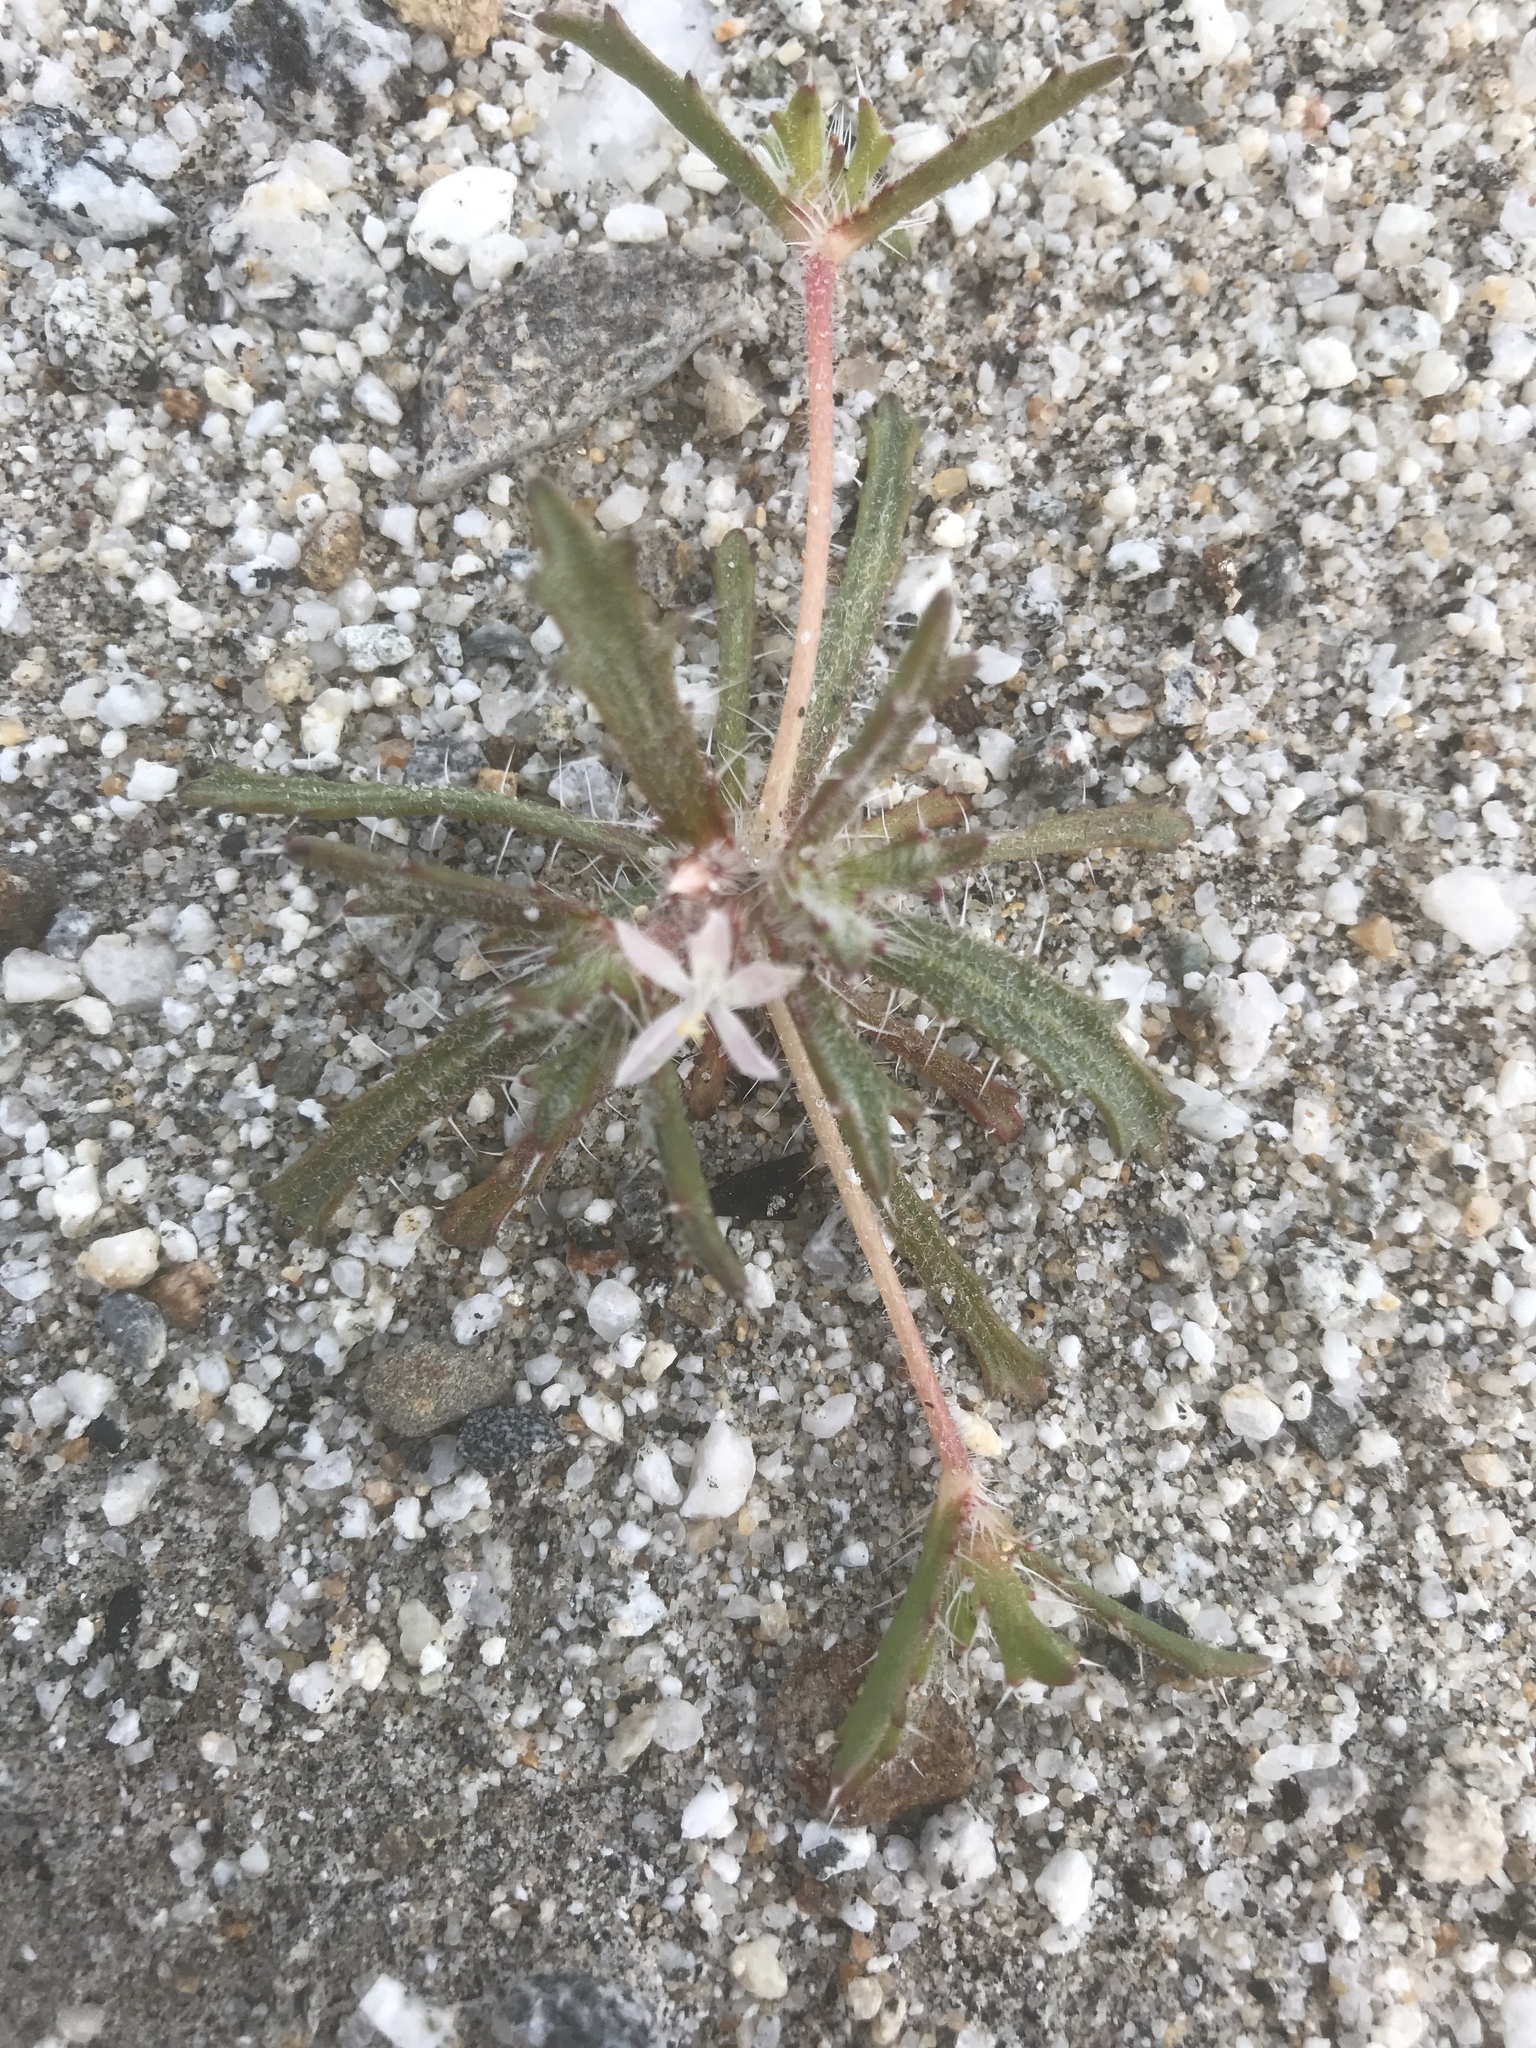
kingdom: Plantae
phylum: Tracheophyta
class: Magnoliopsida
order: Ericales
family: Polemoniaceae
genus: Loeseliastrum
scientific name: Loeseliastrum schottii
